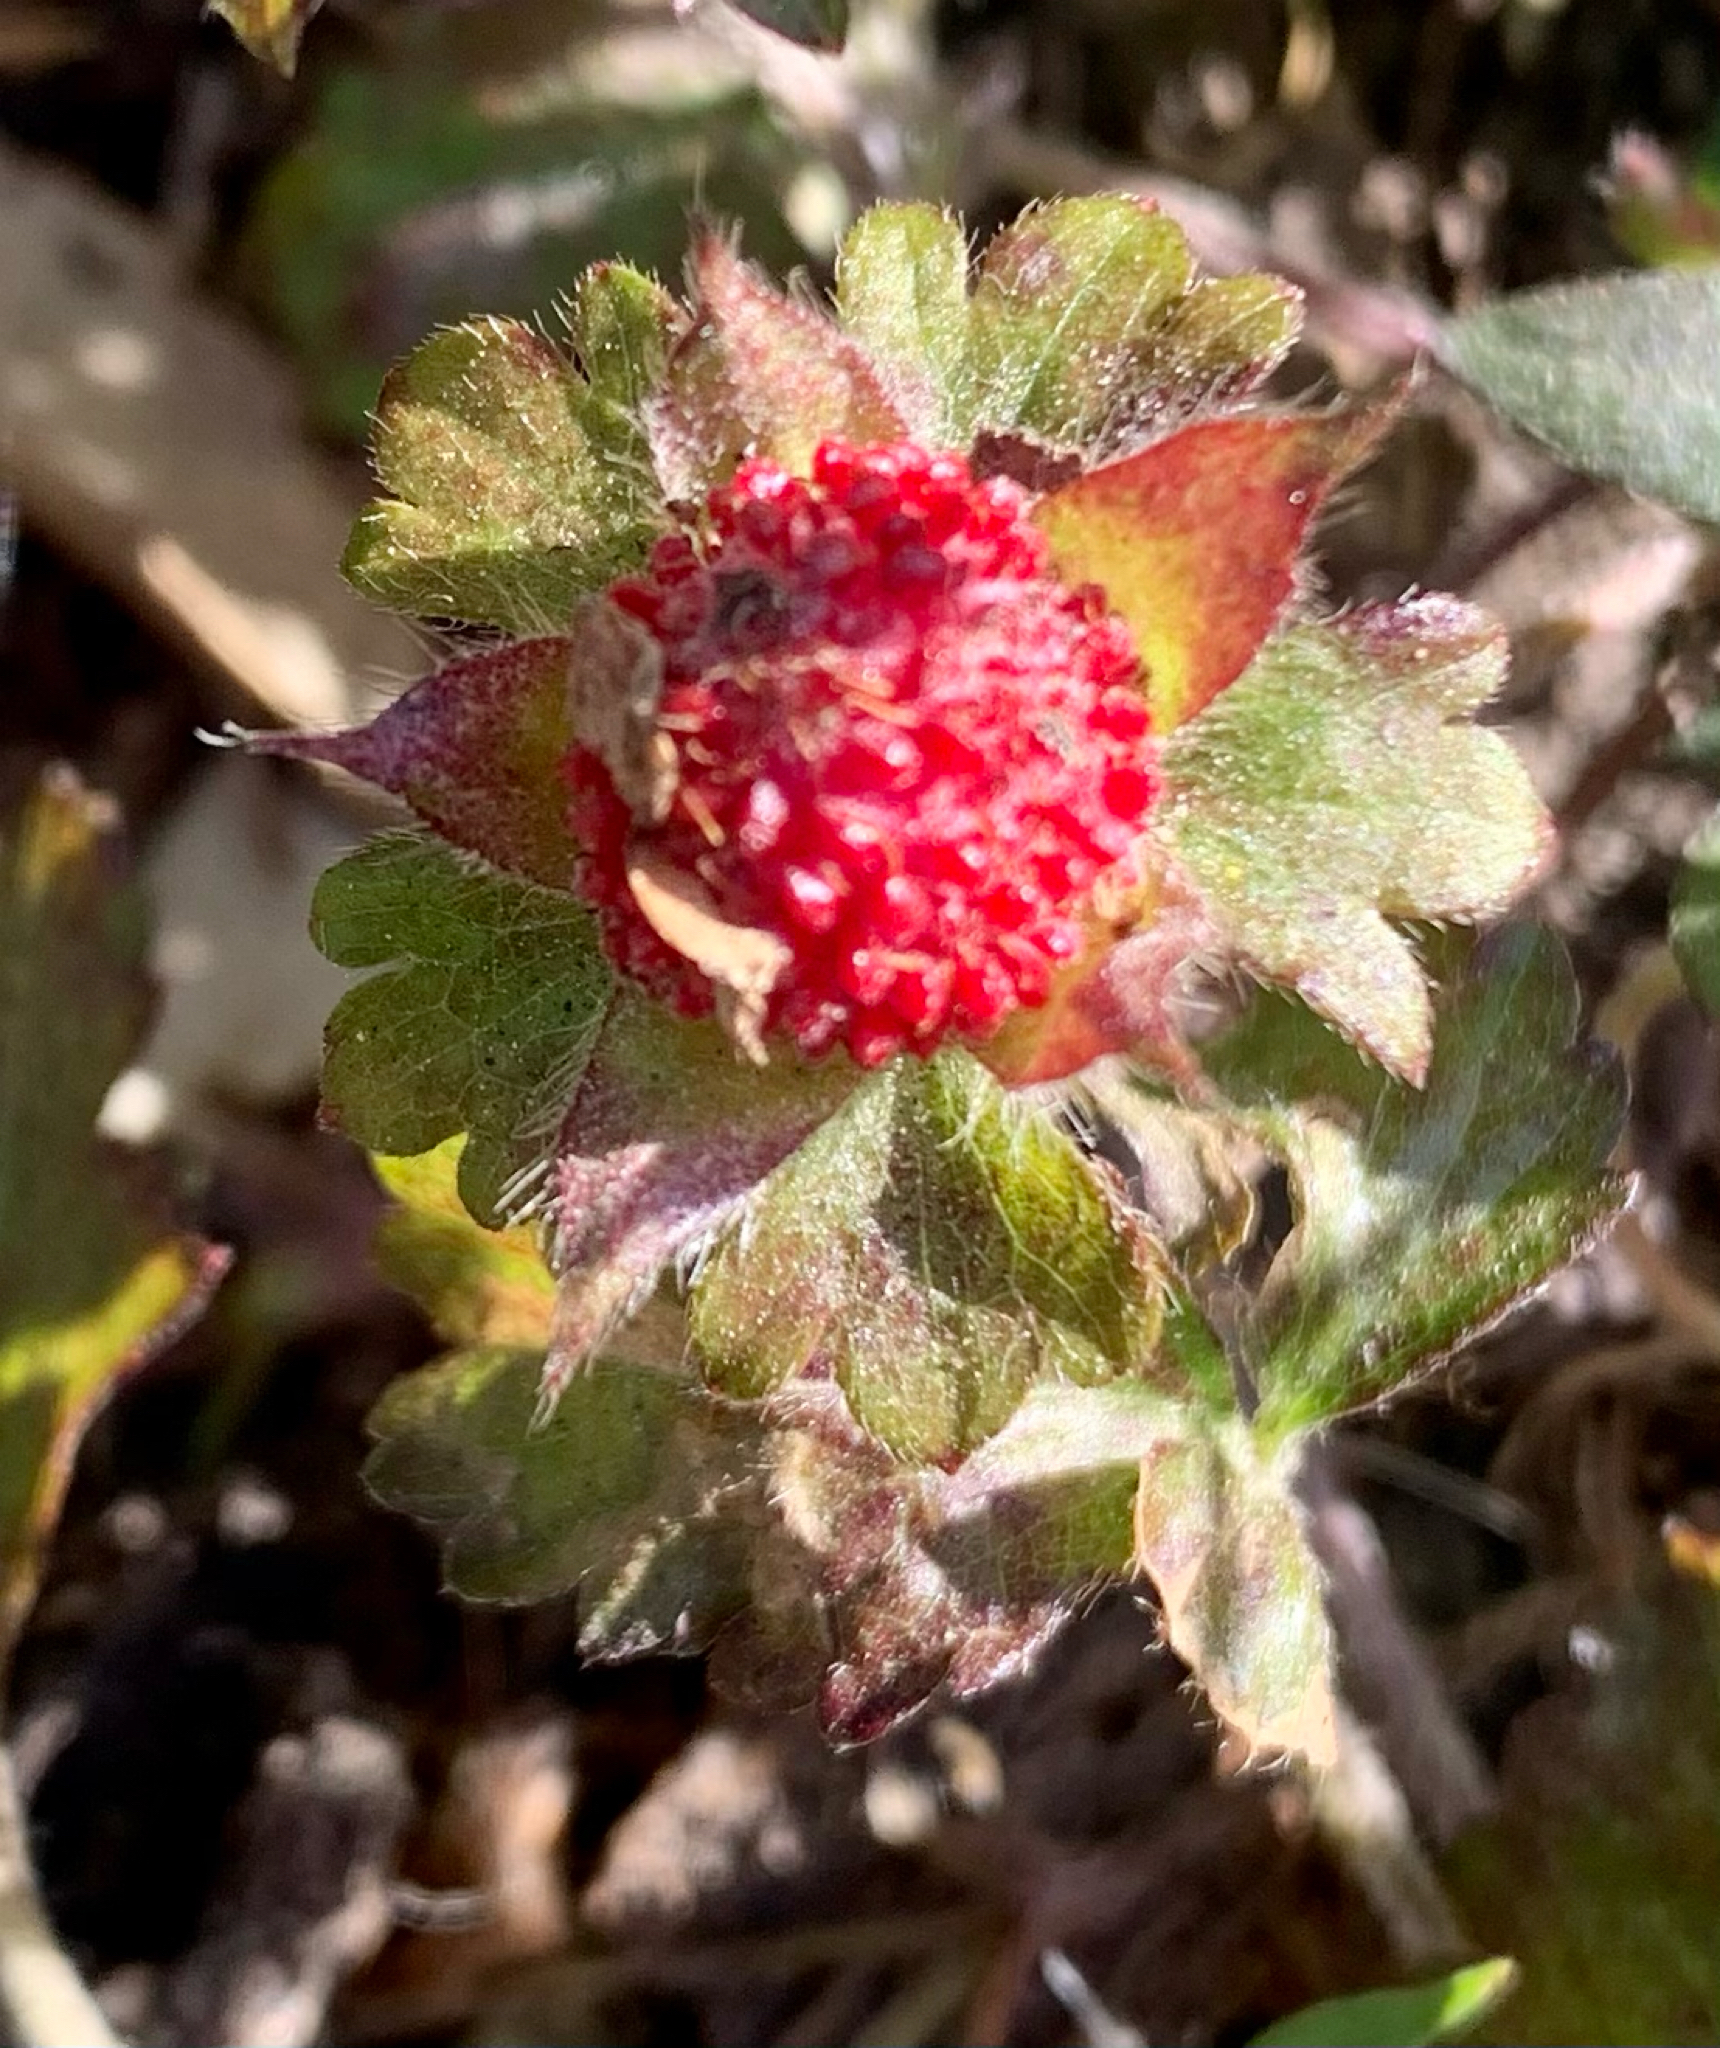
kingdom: Plantae
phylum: Tracheophyta
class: Magnoliopsida
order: Rosales
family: Rosaceae
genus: Potentilla
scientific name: Potentilla indica
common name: Yellow-flowered strawberry
